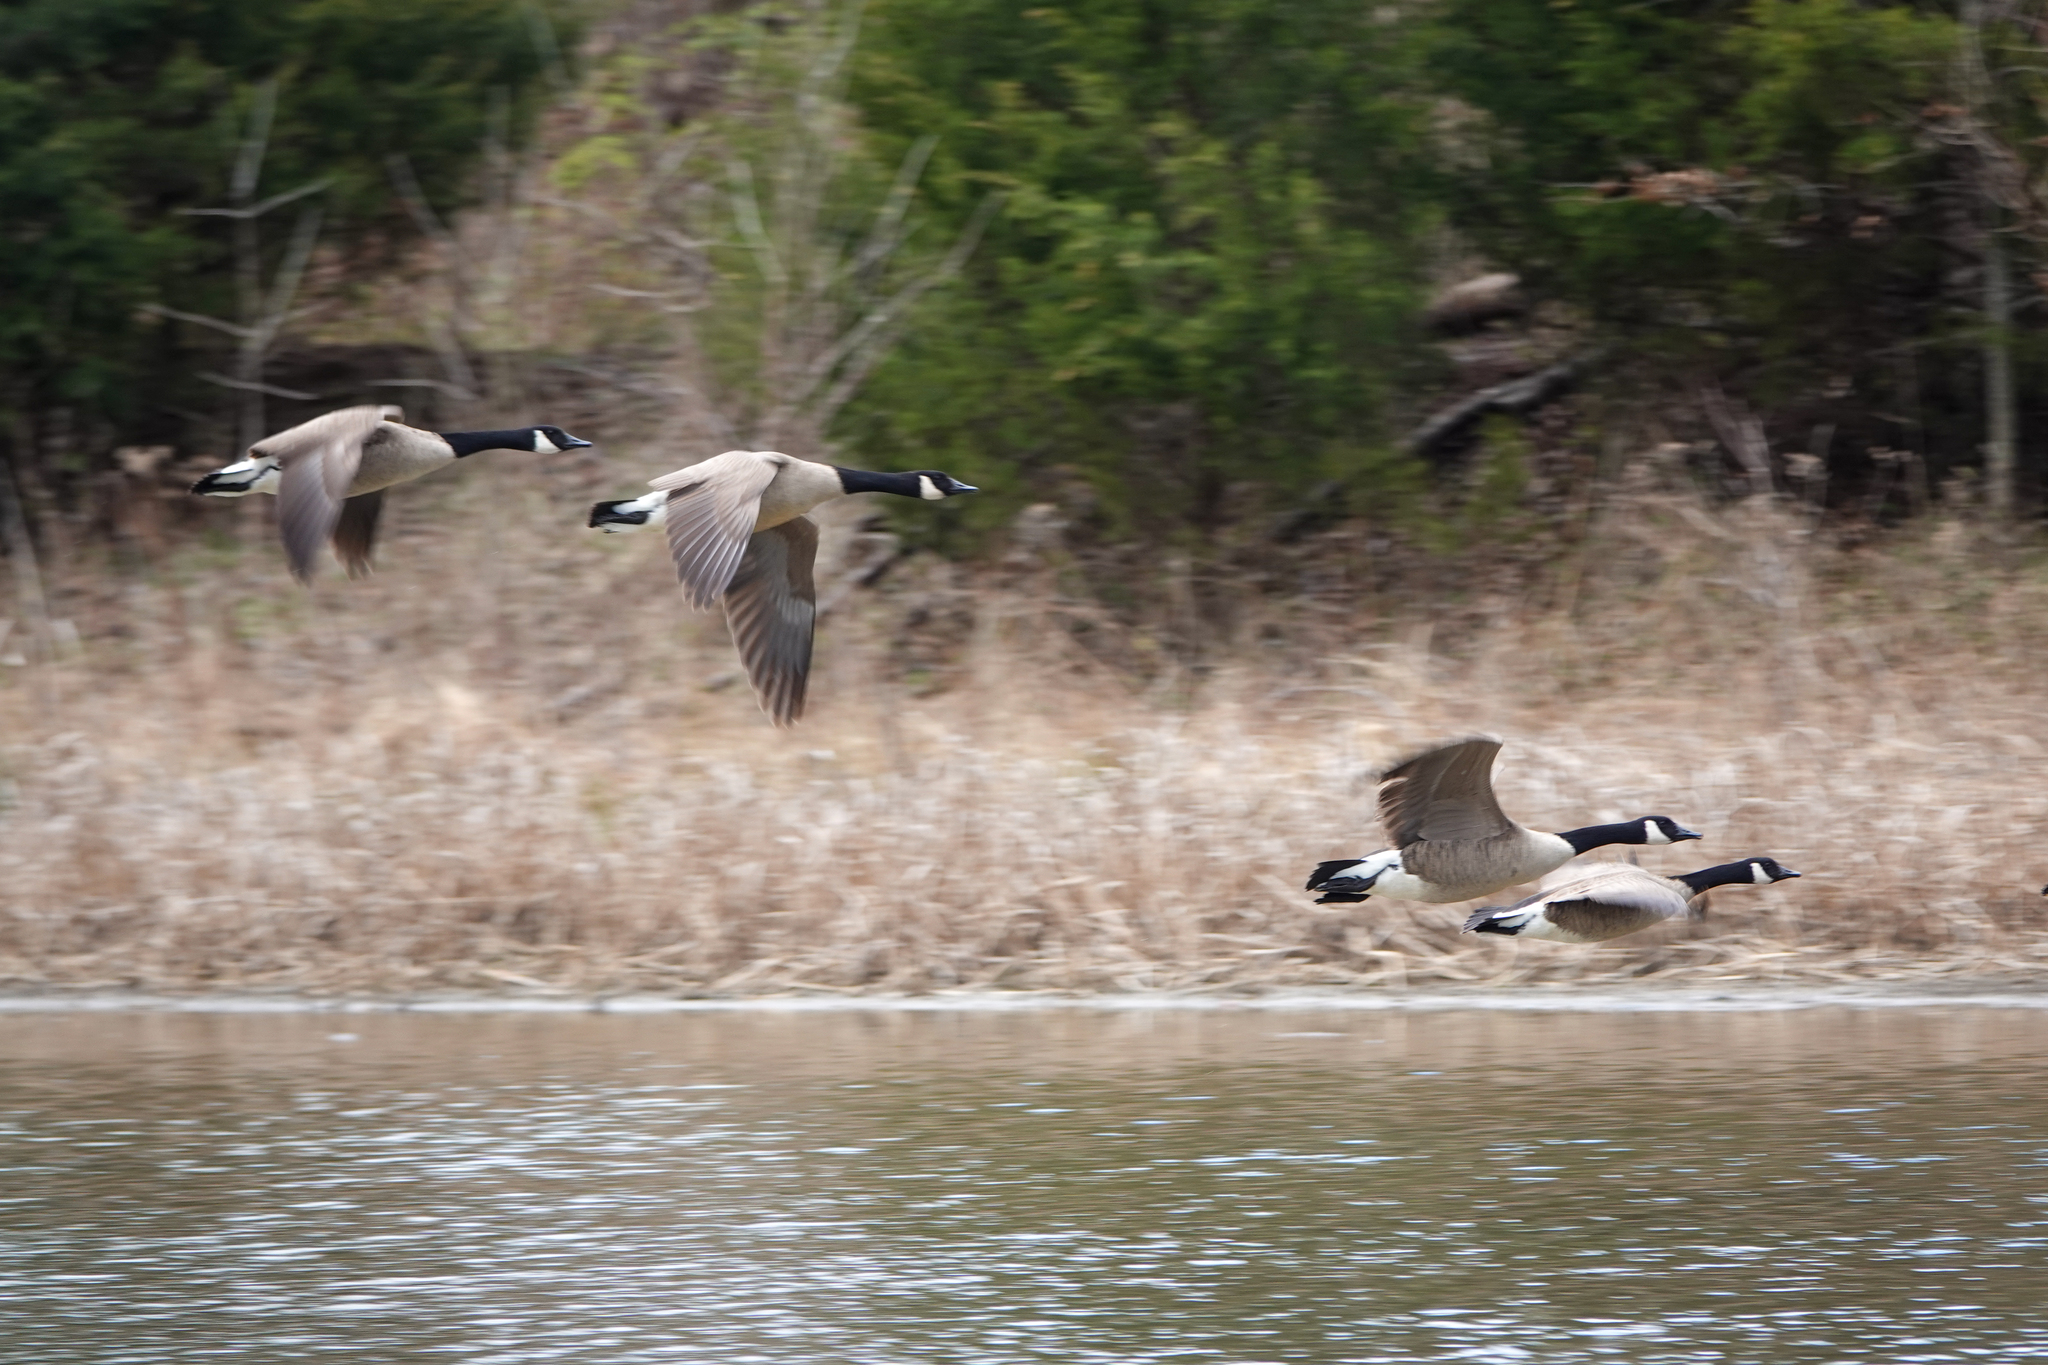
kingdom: Animalia
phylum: Chordata
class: Aves
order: Anseriformes
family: Anatidae
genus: Branta
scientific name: Branta canadensis
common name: Canada goose
